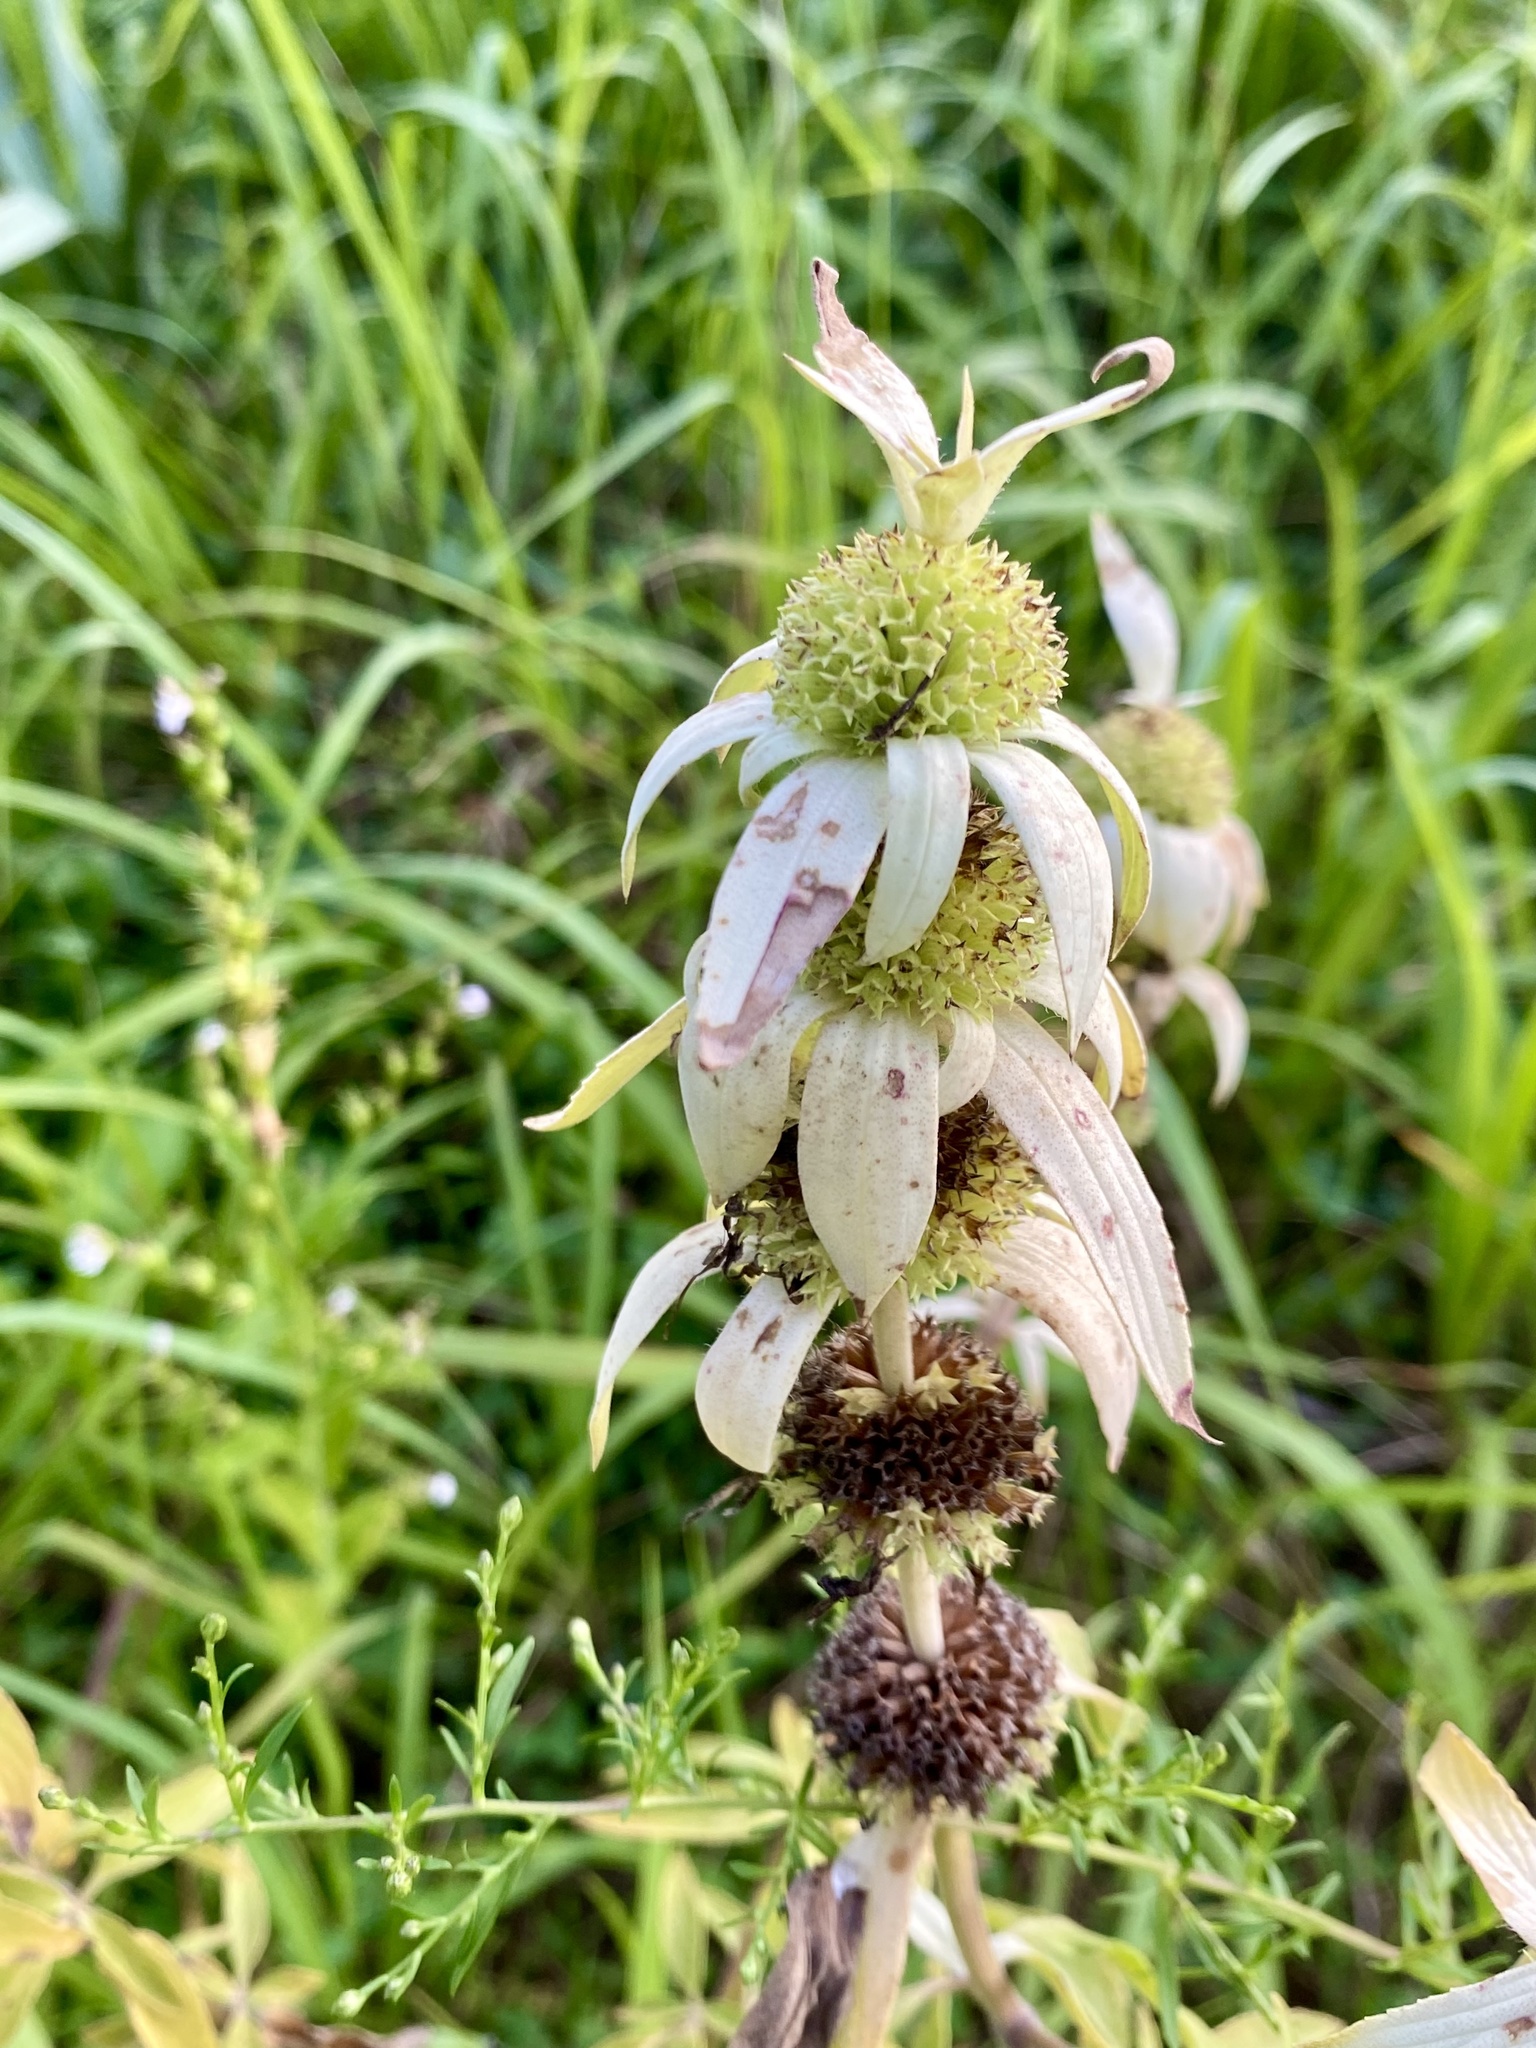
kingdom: Plantae
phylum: Tracheophyta
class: Magnoliopsida
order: Lamiales
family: Lamiaceae
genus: Monarda
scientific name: Monarda punctata
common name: Dotted monarda
